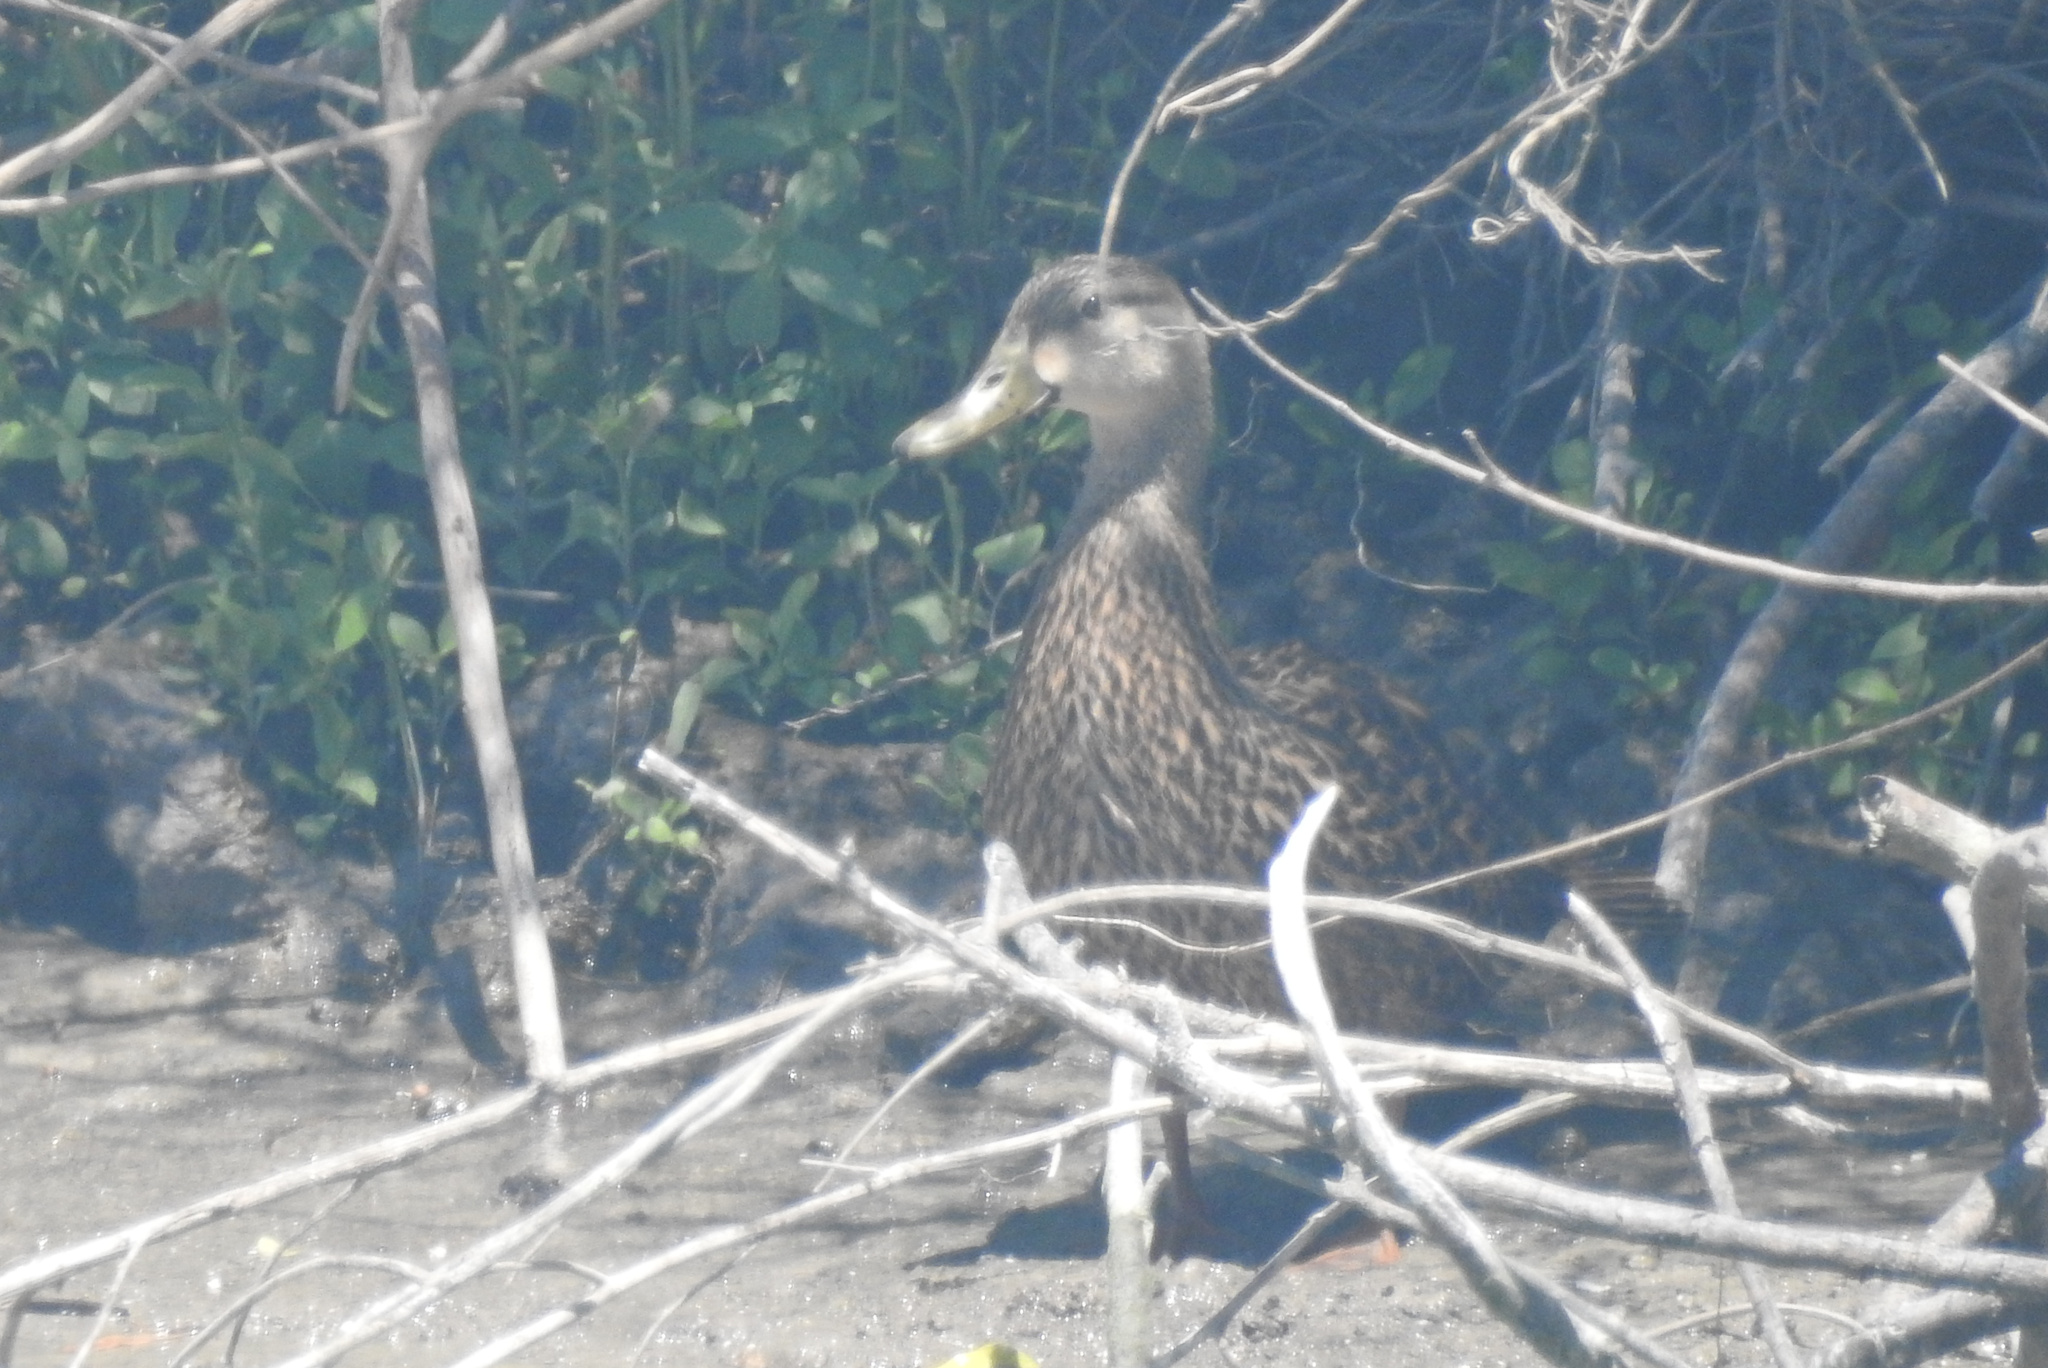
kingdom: Animalia
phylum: Chordata
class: Aves
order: Anseriformes
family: Anatidae
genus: Anas
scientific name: Anas fulvigula
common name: Mottled duck
